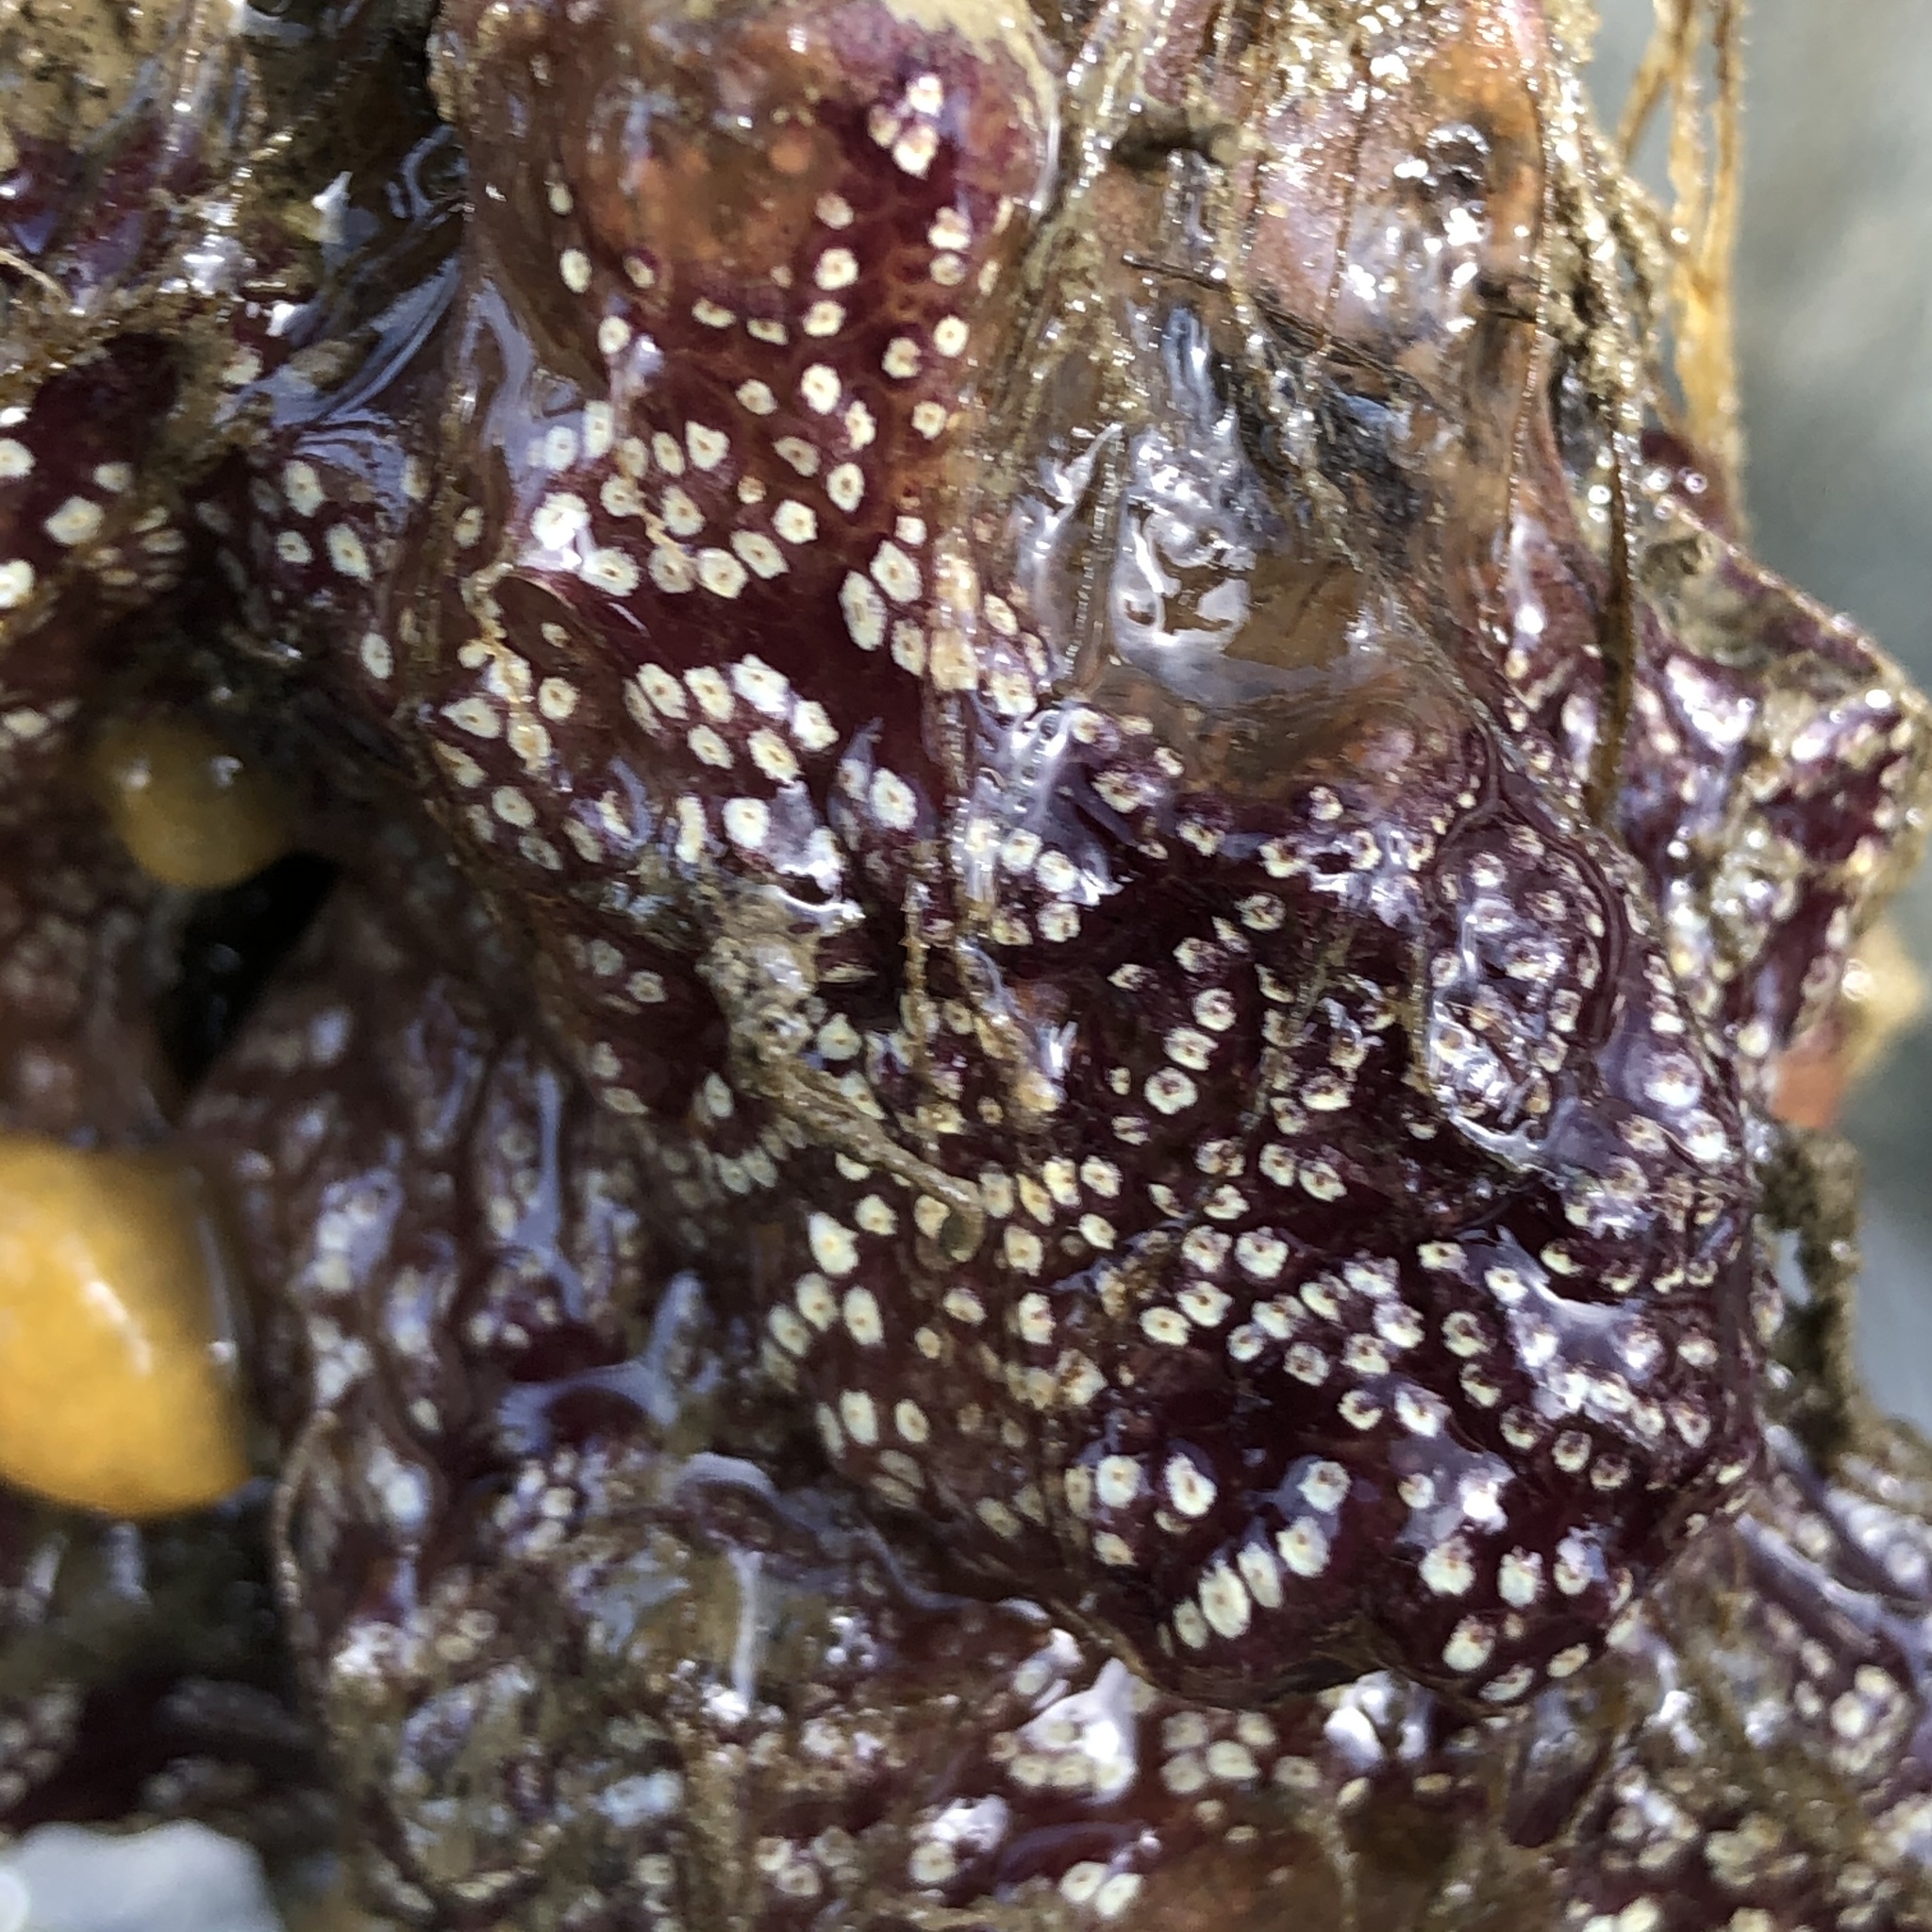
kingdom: Animalia
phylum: Chordata
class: Ascidiacea
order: Stolidobranchia
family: Styelidae
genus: Botrylloides
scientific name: Botrylloides diegensis
